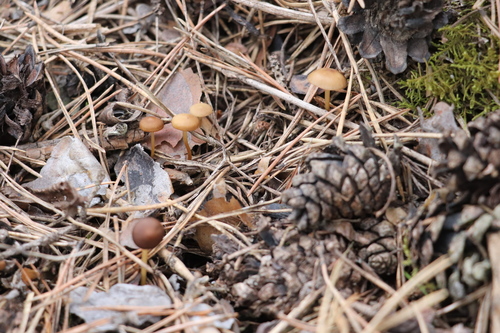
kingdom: Fungi
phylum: Basidiomycota
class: Agaricomycetes
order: Agaricales
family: Physalacriaceae
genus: Strobilurus
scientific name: Strobilurus stephanocystis
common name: Russian conecap
